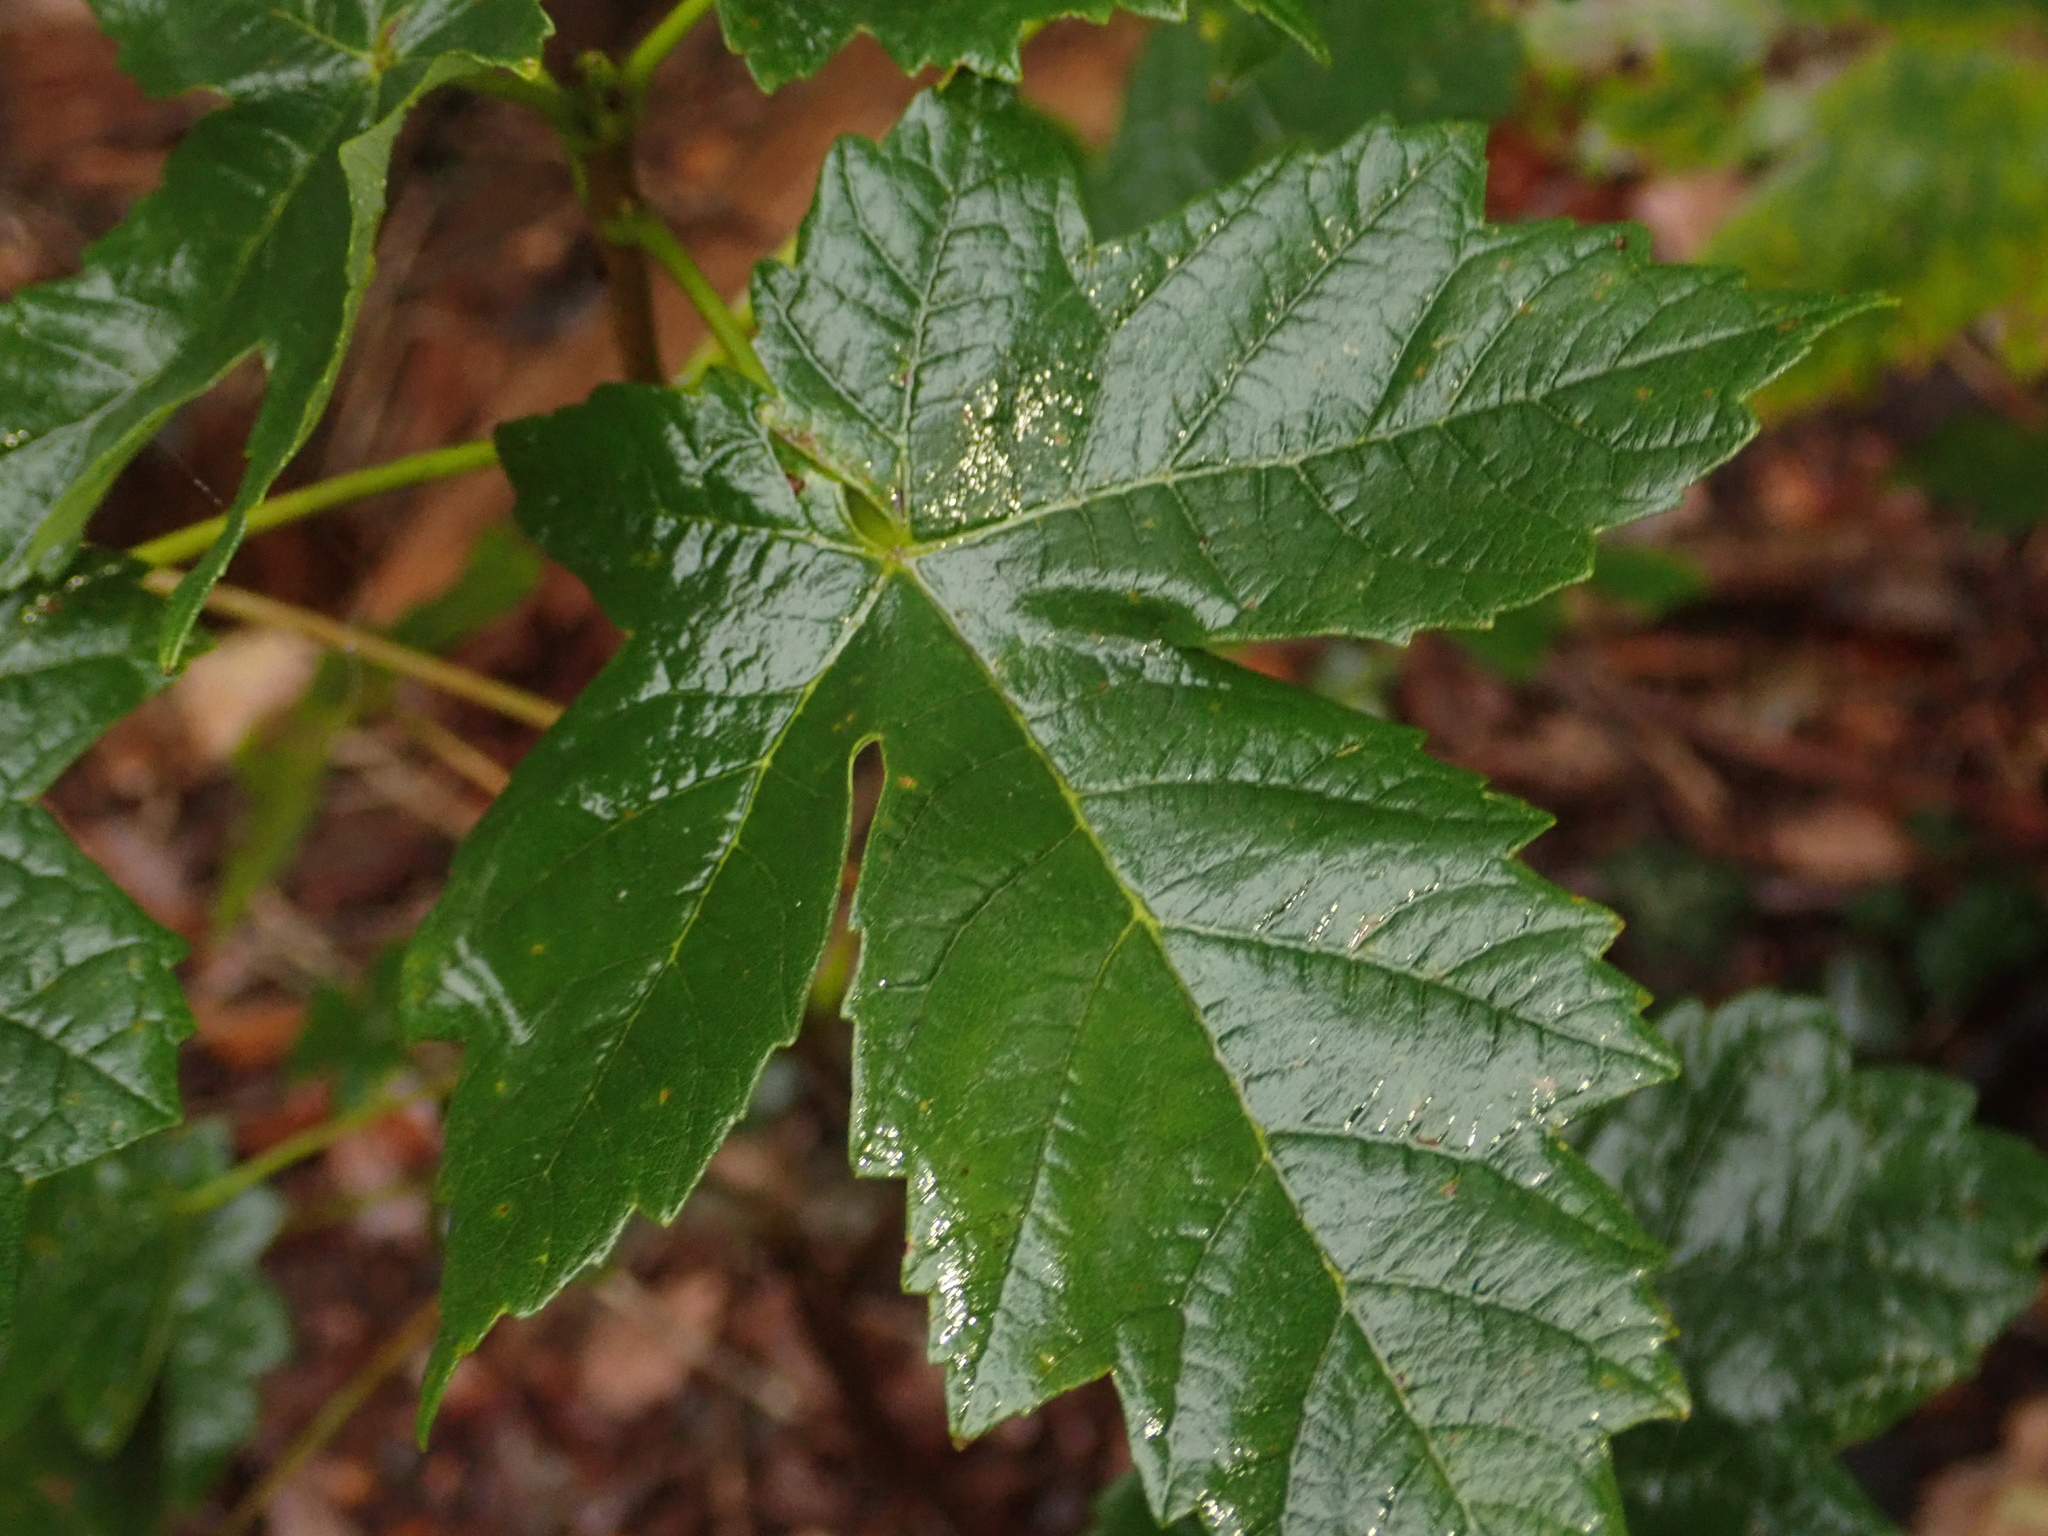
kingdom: Plantae
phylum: Tracheophyta
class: Magnoliopsida
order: Sapindales
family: Sapindaceae
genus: Acer
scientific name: Acer pseudoplatanus
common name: Sycamore
